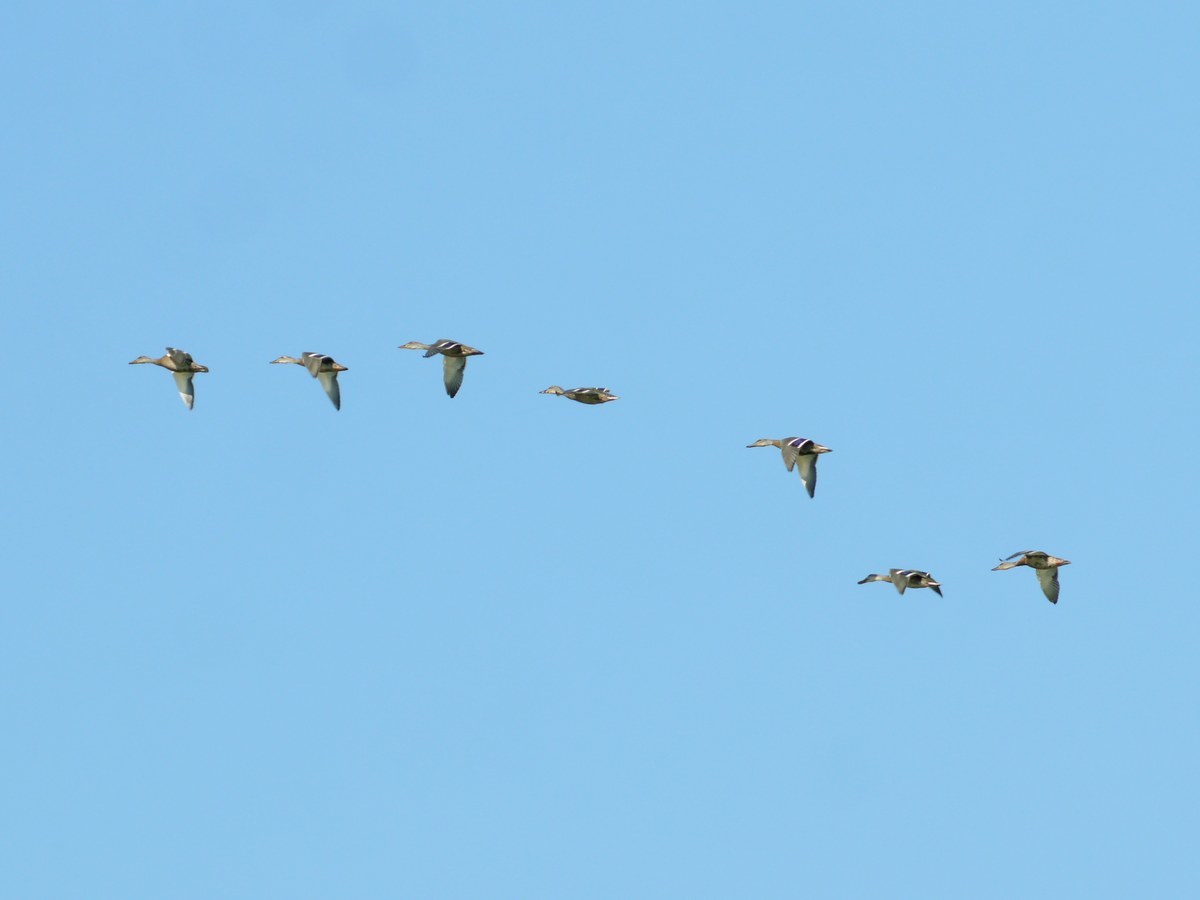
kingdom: Animalia
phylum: Chordata
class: Aves
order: Anseriformes
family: Anatidae
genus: Anas
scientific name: Anas platyrhynchos
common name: Mallard
